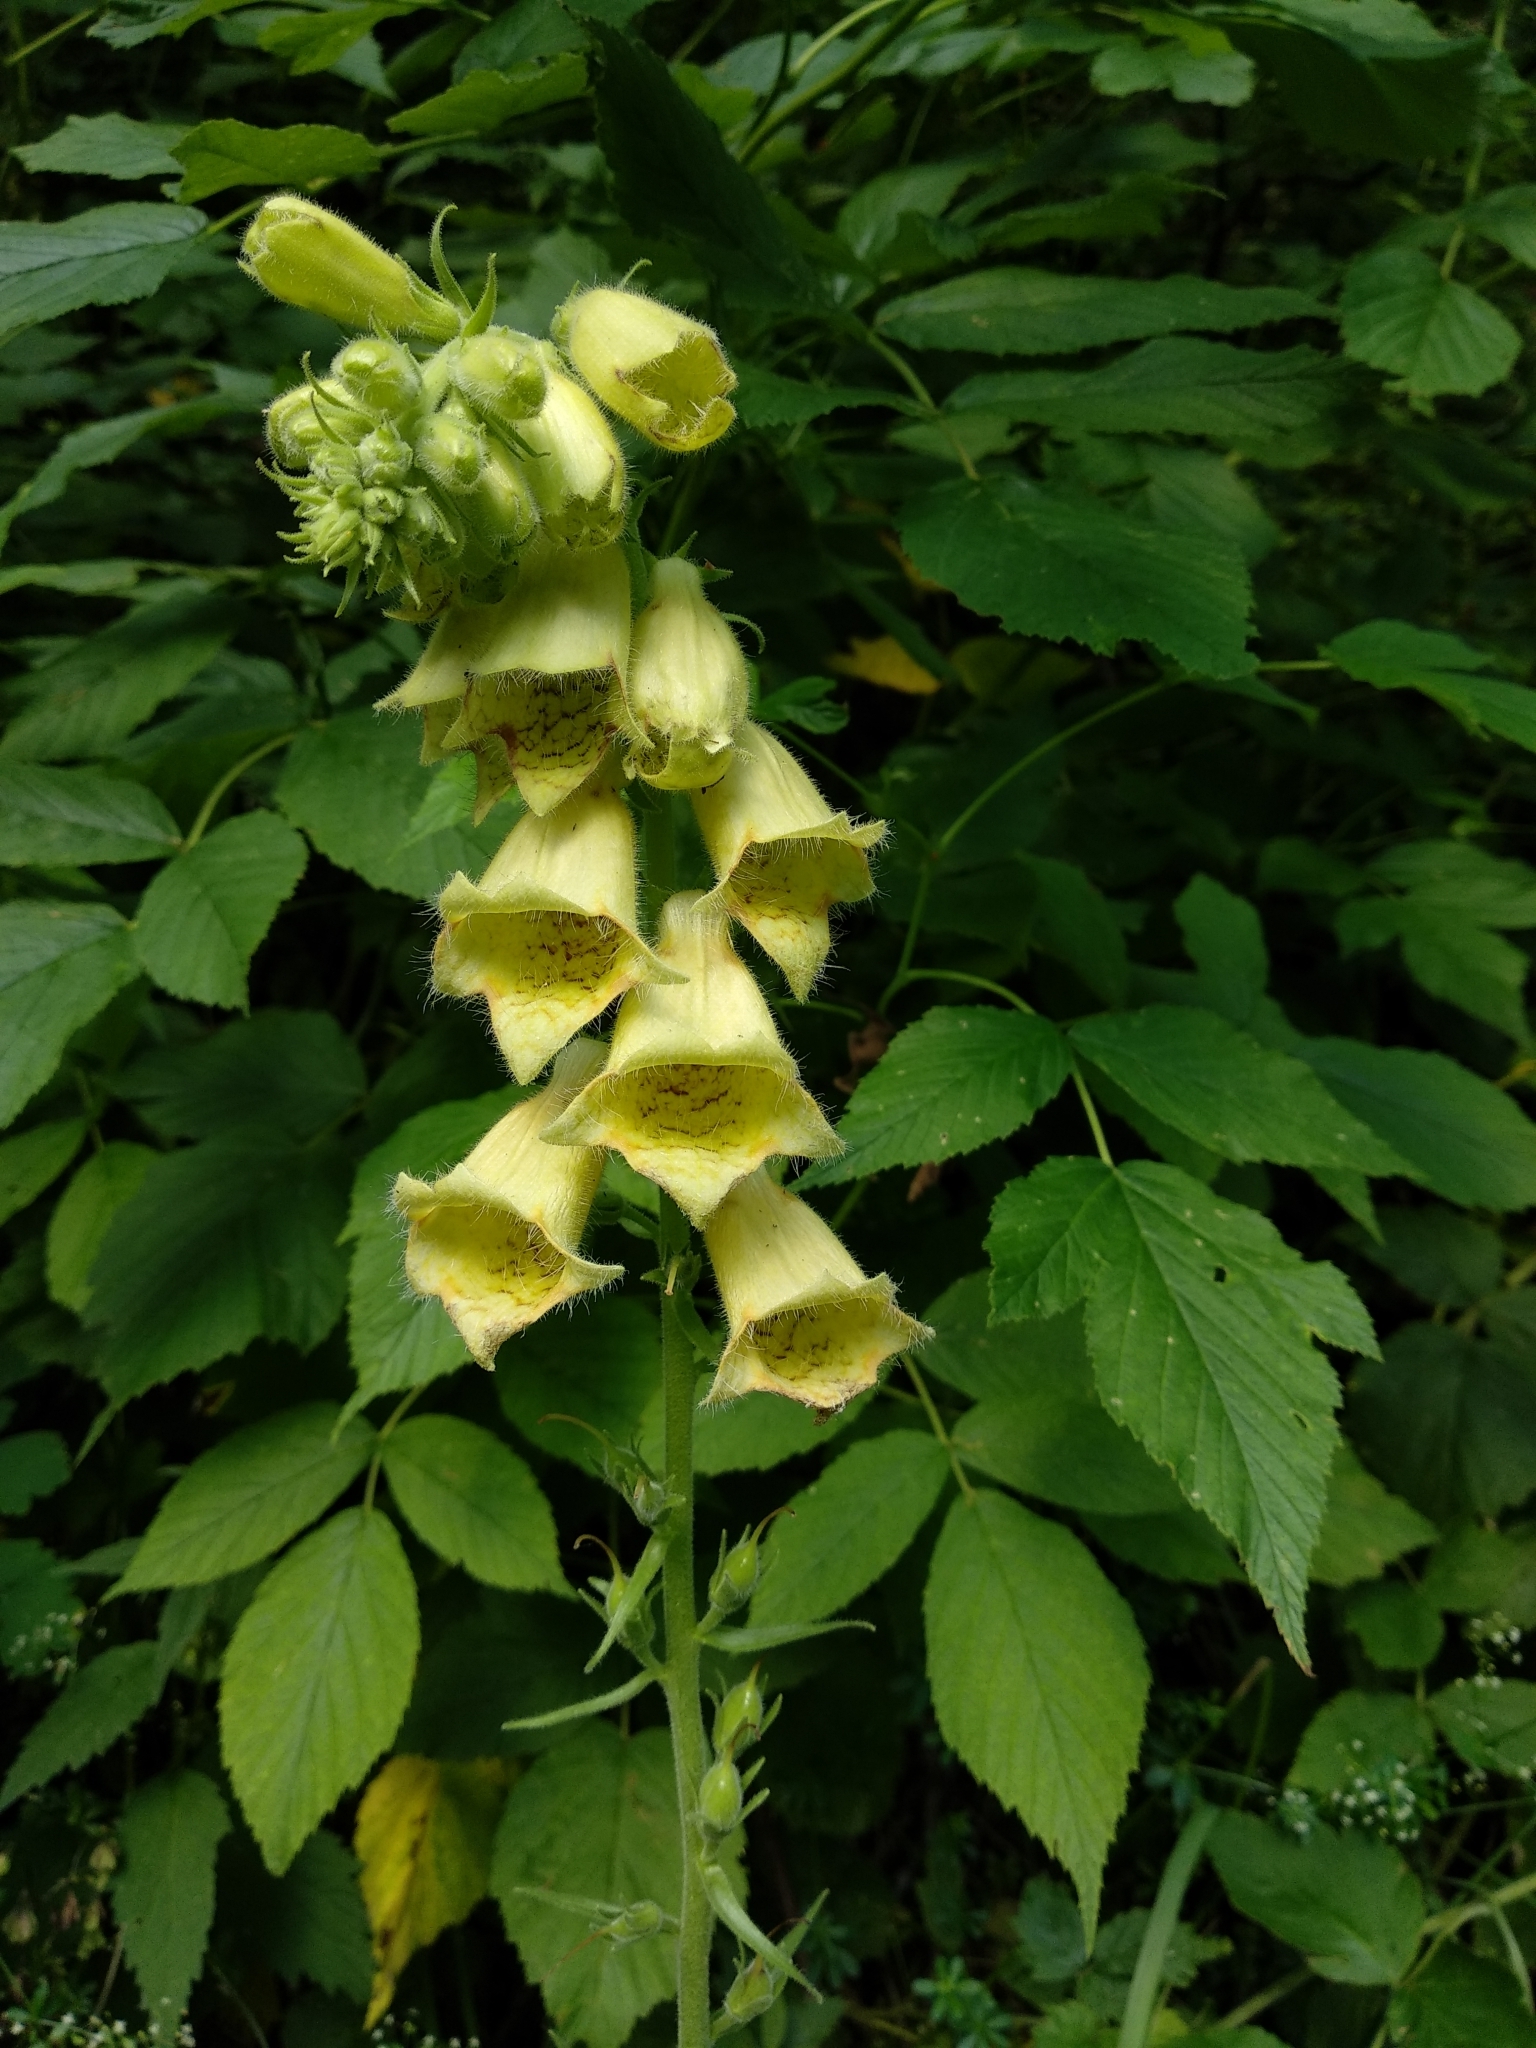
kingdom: Plantae
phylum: Tracheophyta
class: Magnoliopsida
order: Lamiales
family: Plantaginaceae
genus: Digitalis
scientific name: Digitalis grandiflora
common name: Yellow foxglove
